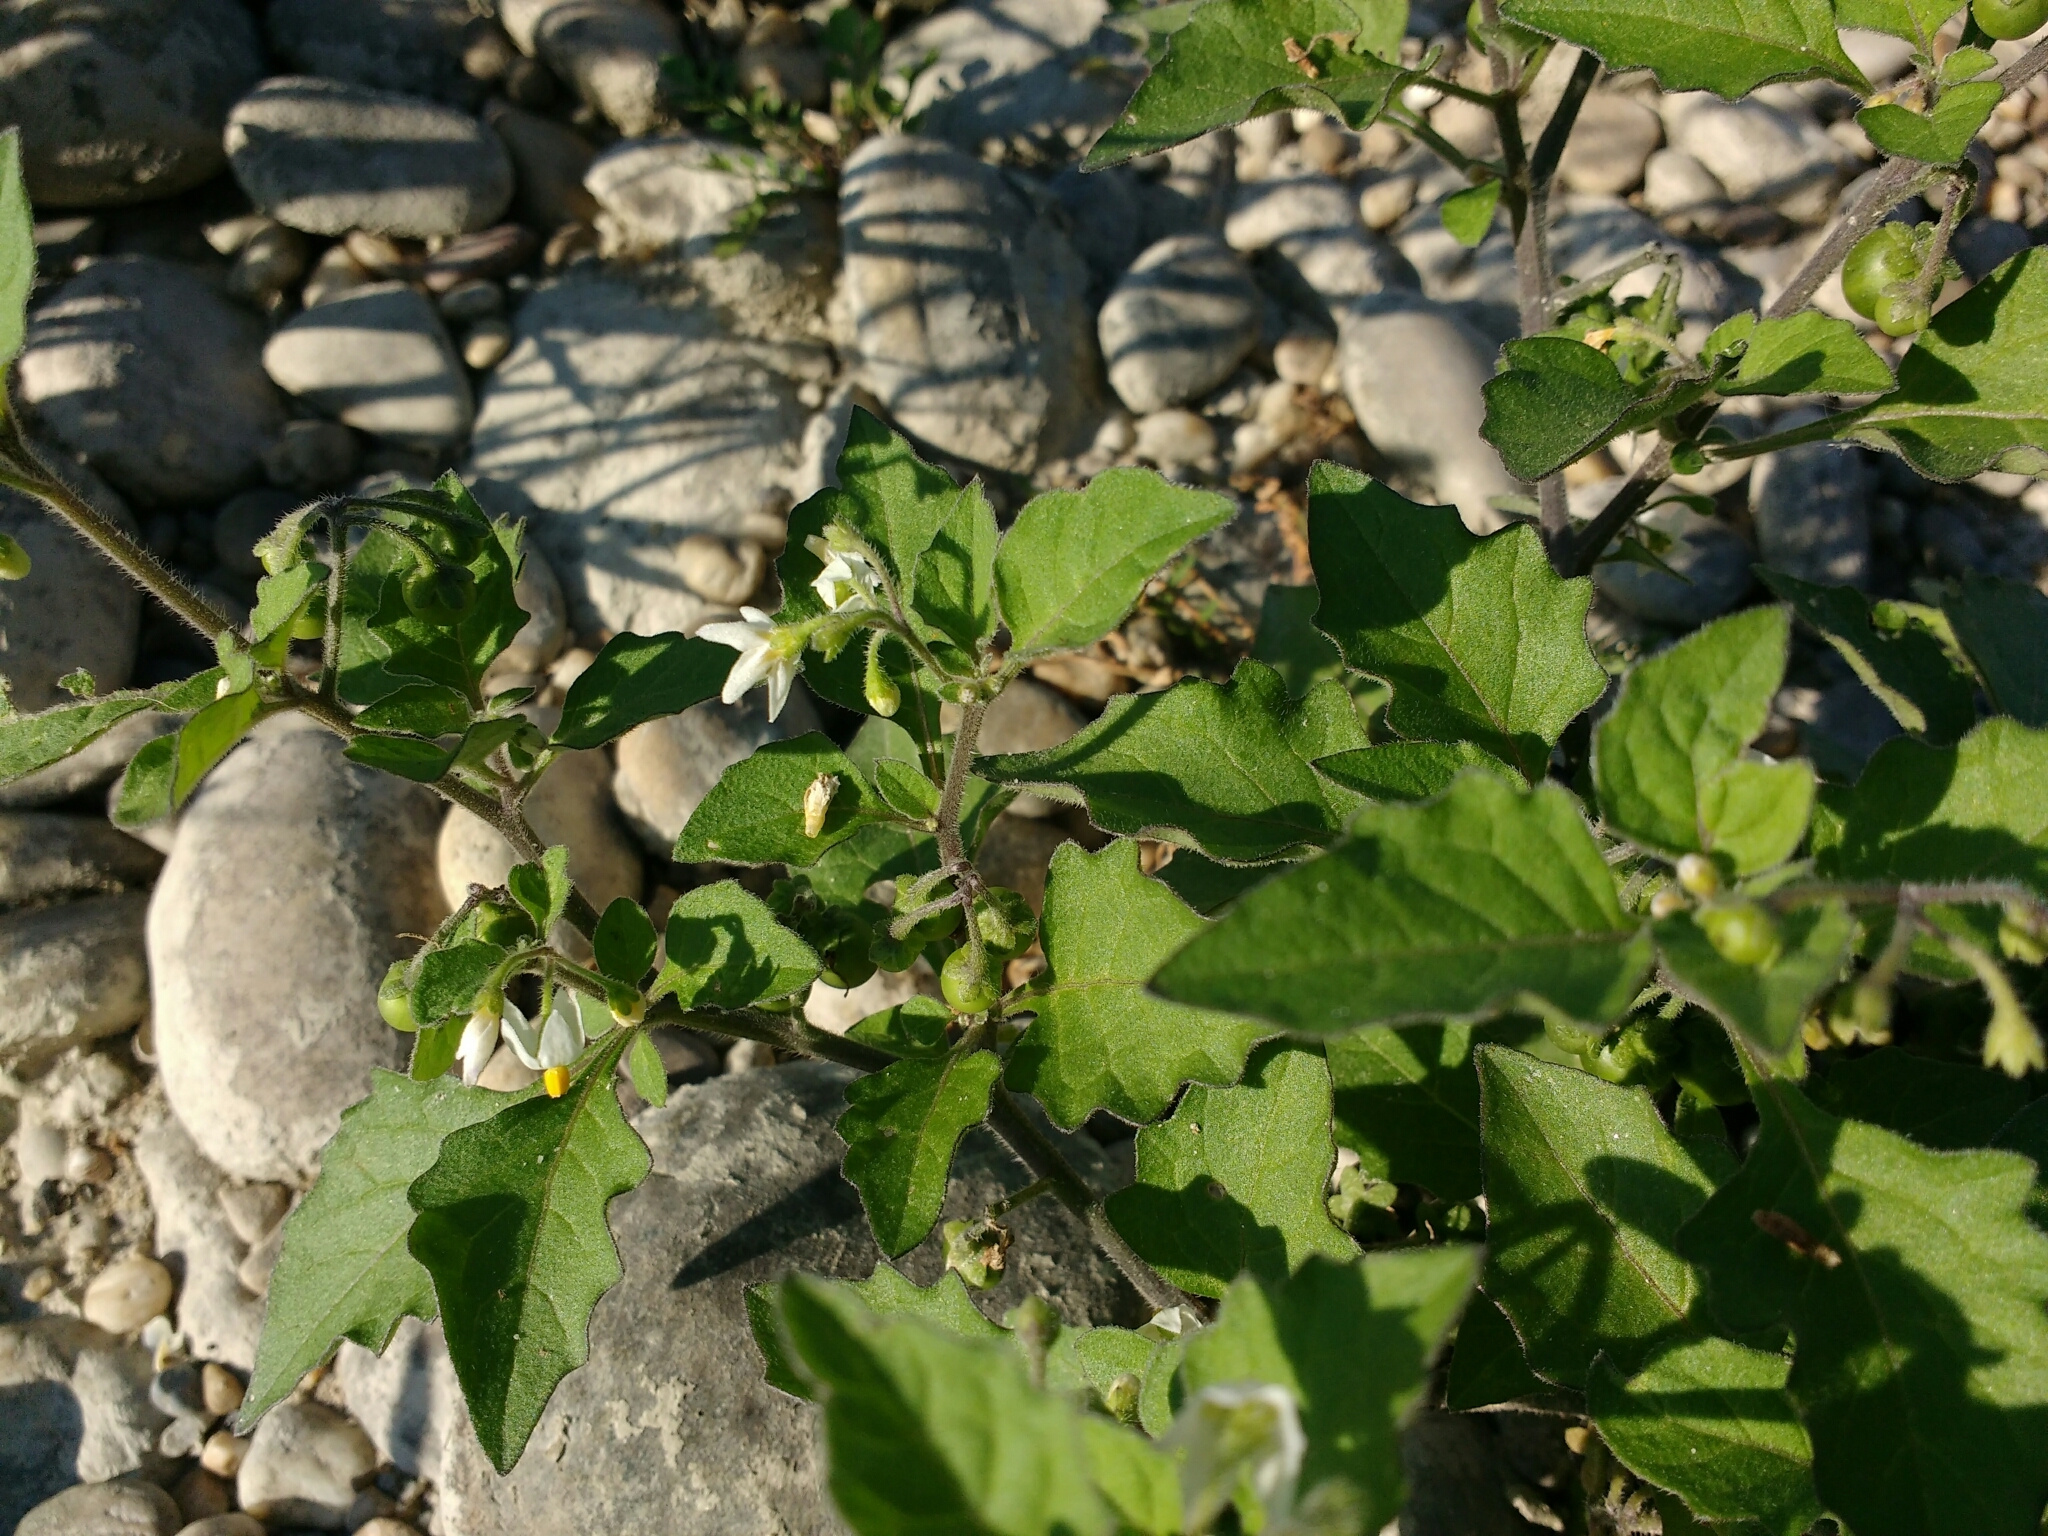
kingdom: Plantae
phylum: Tracheophyta
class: Magnoliopsida
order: Solanales
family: Solanaceae
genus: Solanum
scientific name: Solanum nigrum
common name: Black nightshade
